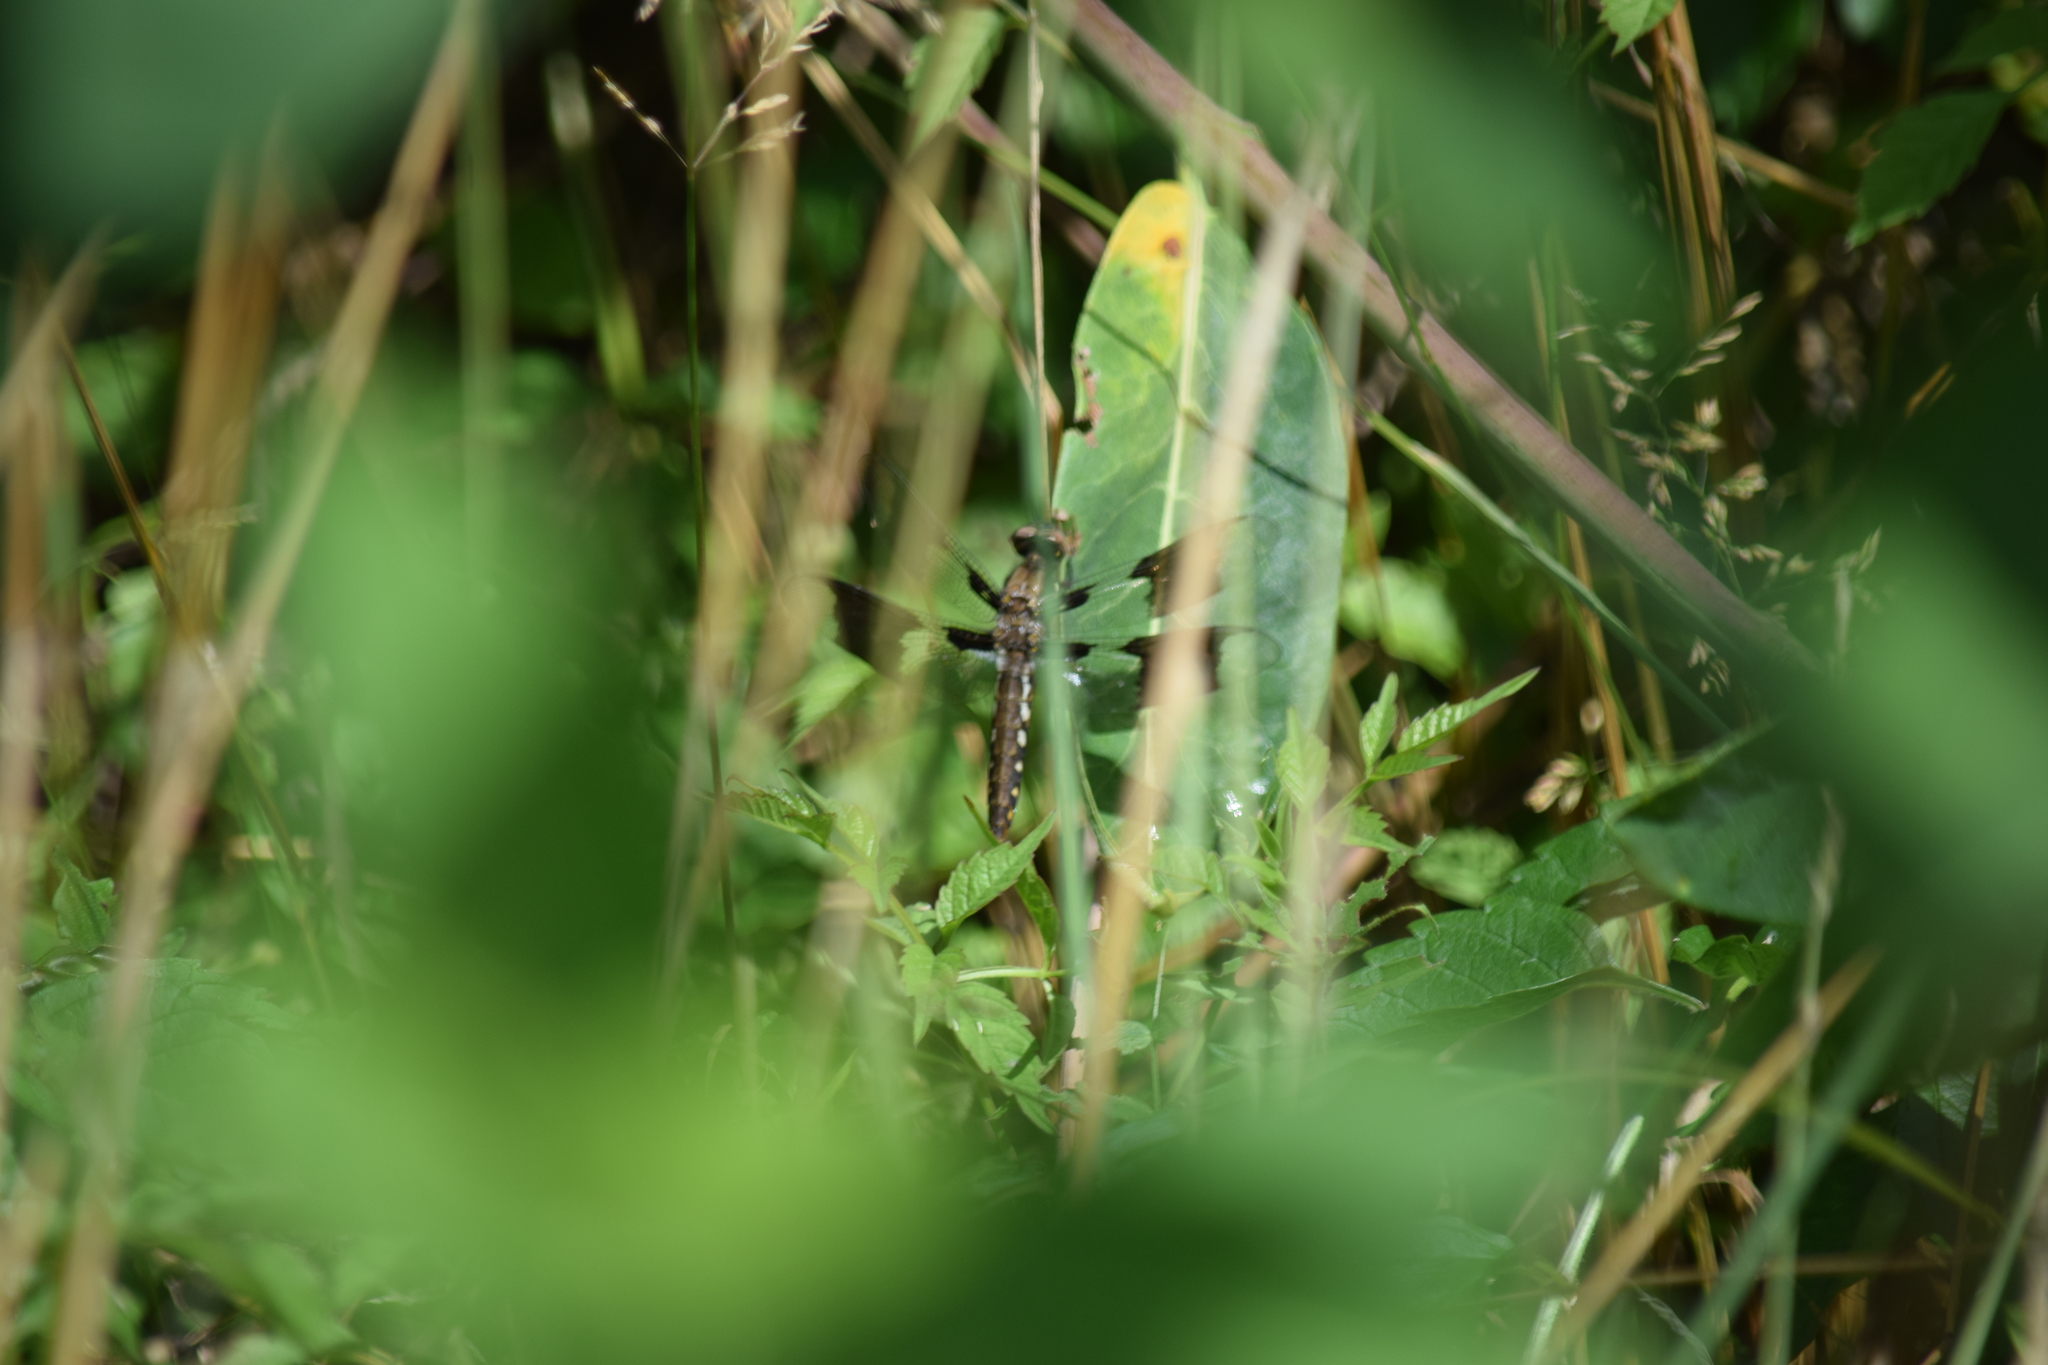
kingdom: Animalia
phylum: Arthropoda
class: Insecta
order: Odonata
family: Libellulidae
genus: Plathemis
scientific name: Plathemis lydia
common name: Common whitetail
